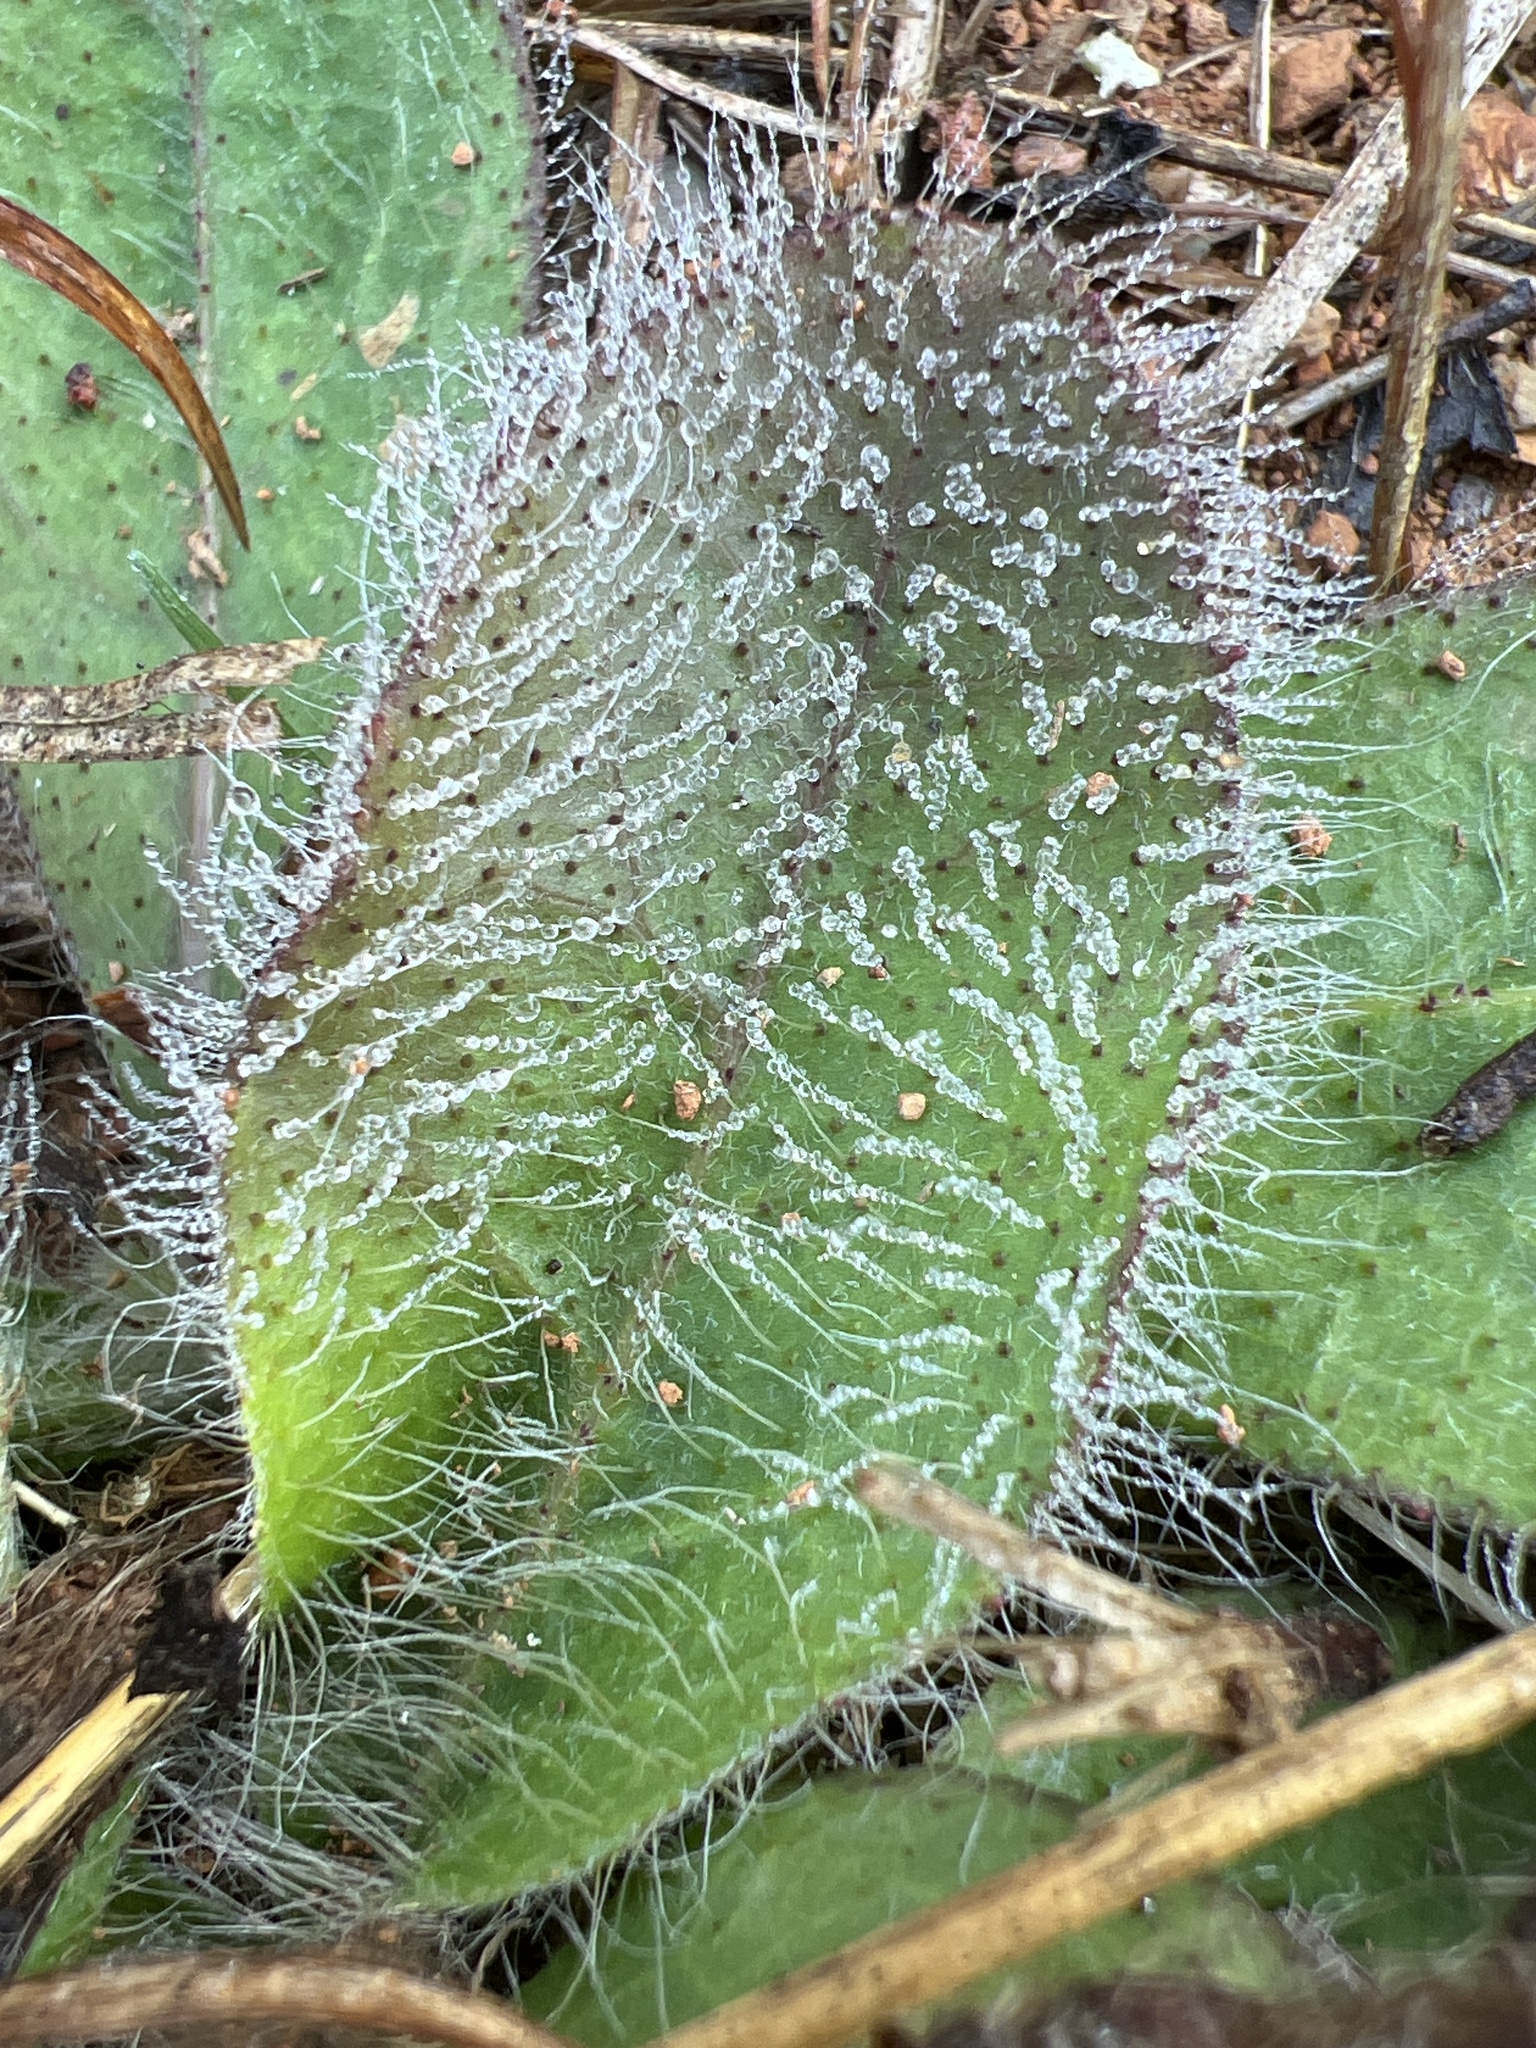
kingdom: Plantae
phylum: Tracheophyta
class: Magnoliopsida
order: Asterales
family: Asteraceae
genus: Hieracium
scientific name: Hieracium gronovii
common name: Beaked hawkweed
